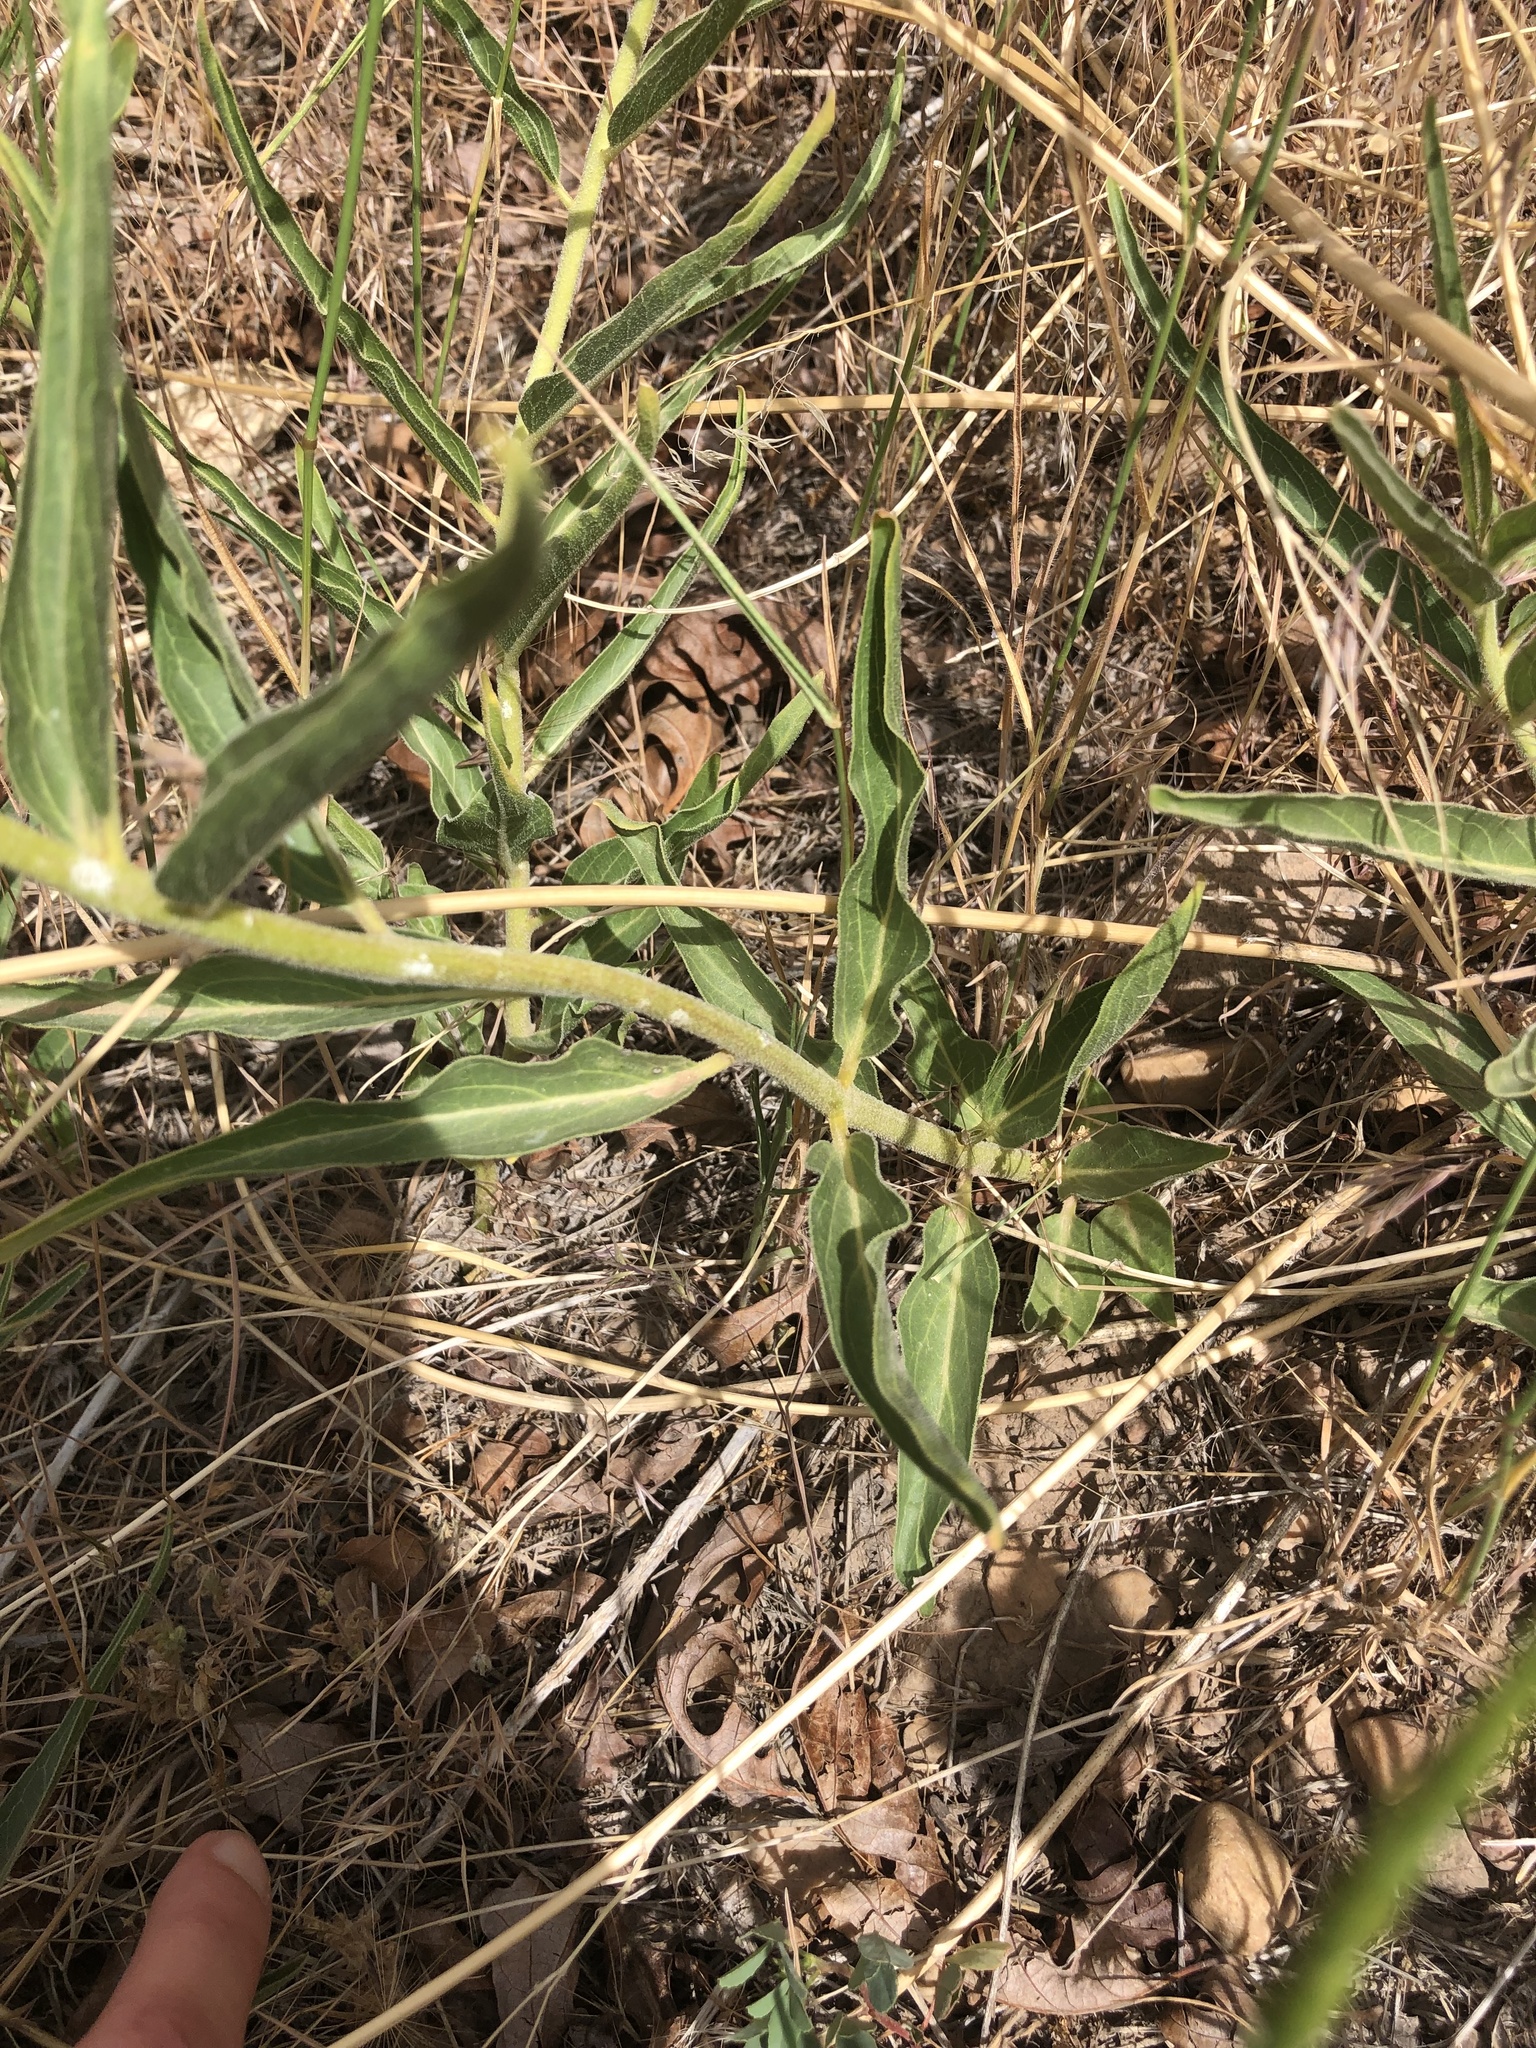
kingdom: Plantae
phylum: Tracheophyta
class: Magnoliopsida
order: Gentianales
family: Apocynaceae
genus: Asclepias
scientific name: Asclepias asperula
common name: Antelope horns
